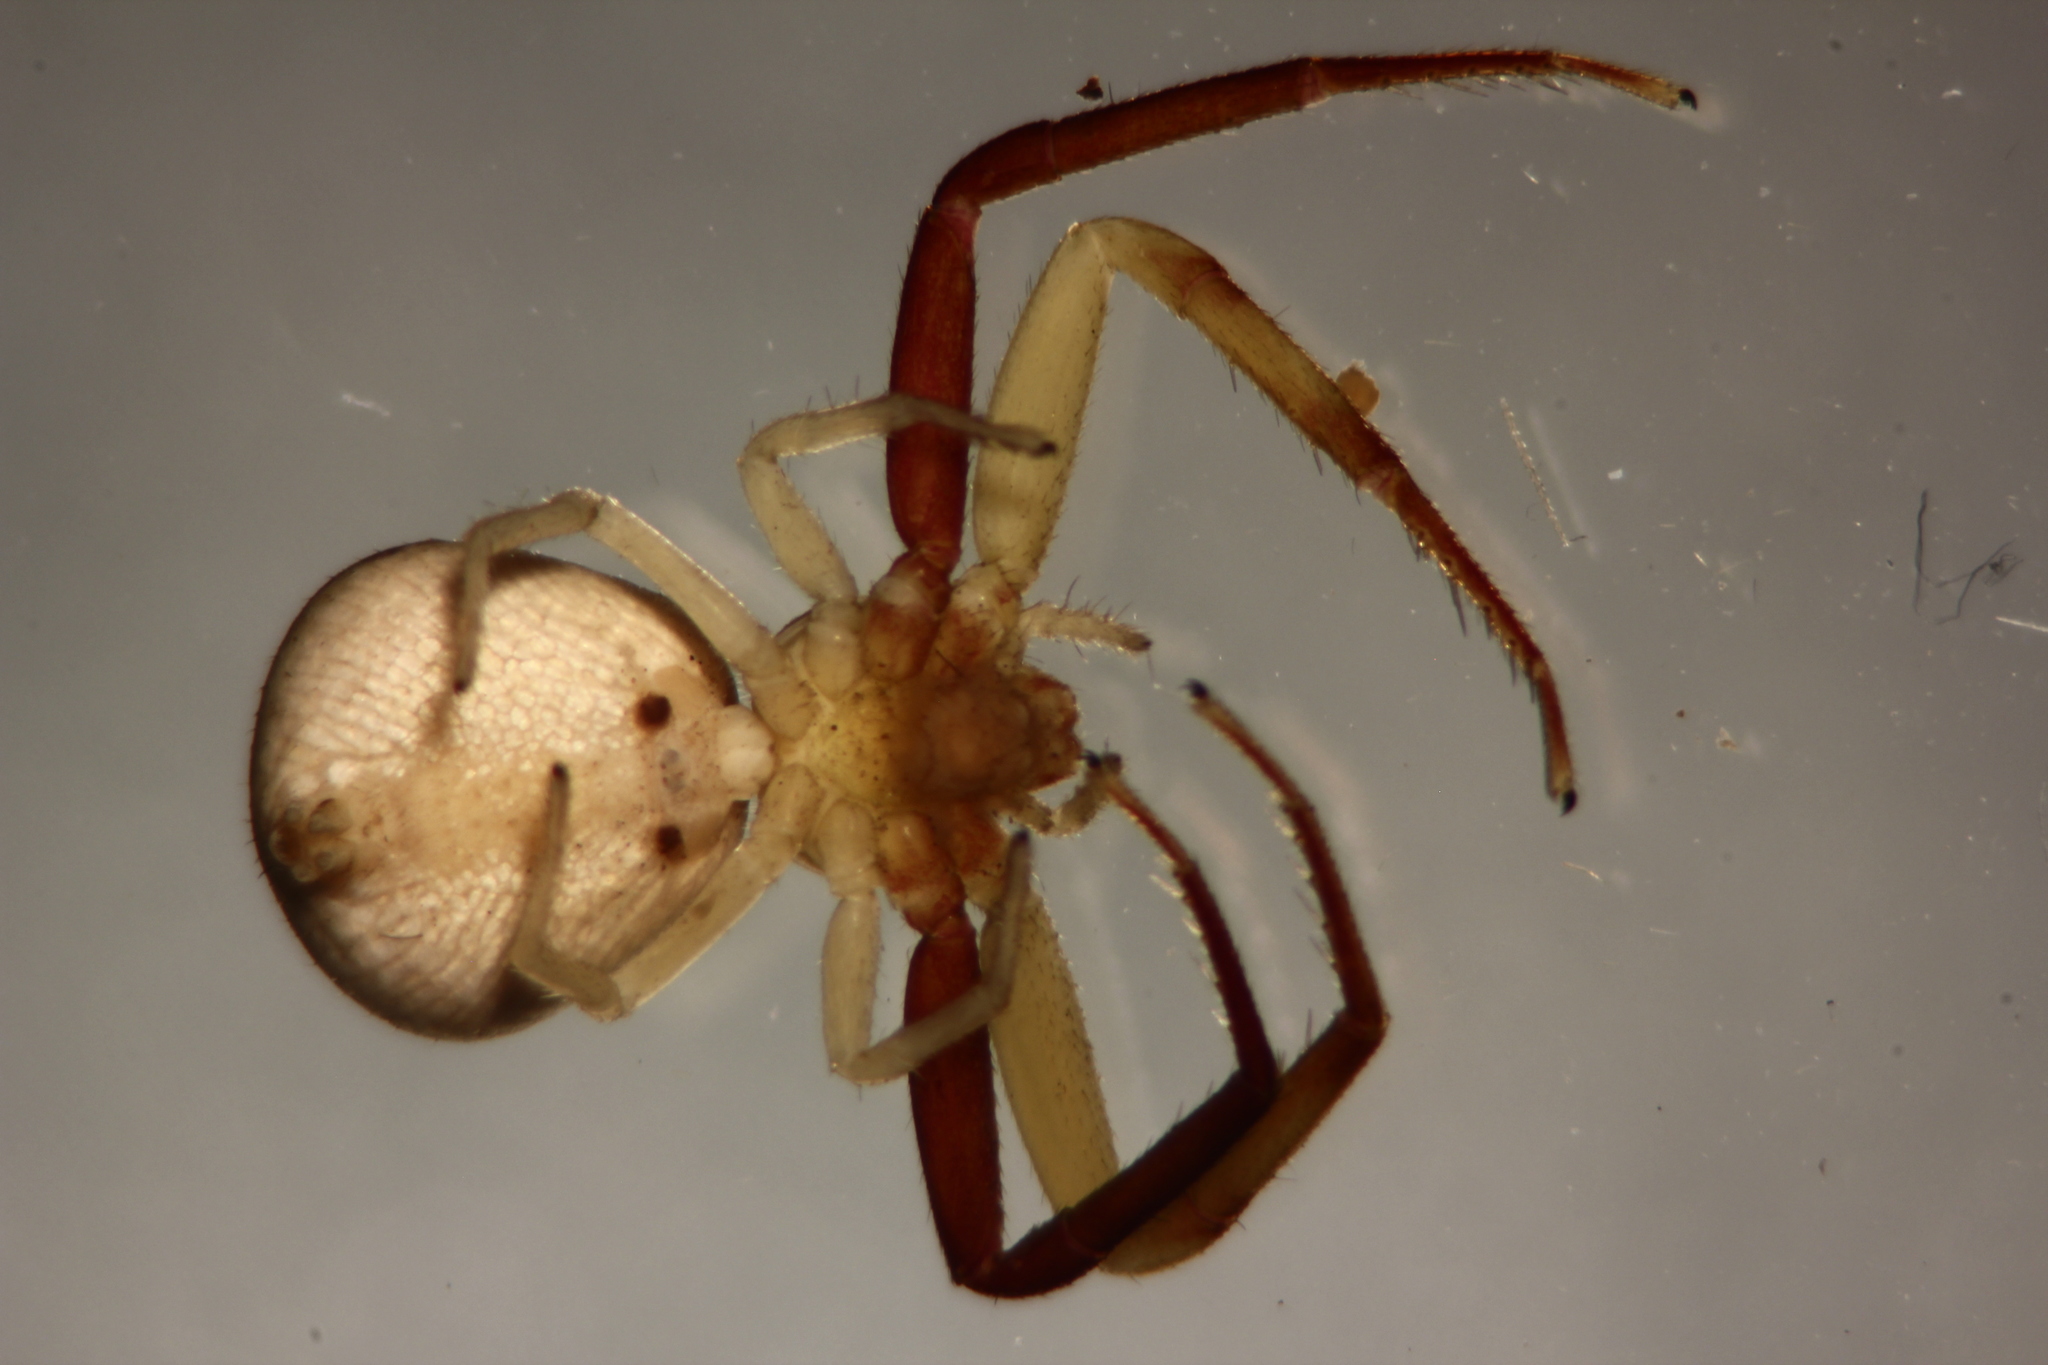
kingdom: Animalia
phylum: Arthropoda
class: Arachnida
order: Araneae
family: Thomisidae
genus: Ebrechtella
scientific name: Ebrechtella pseudovatia
